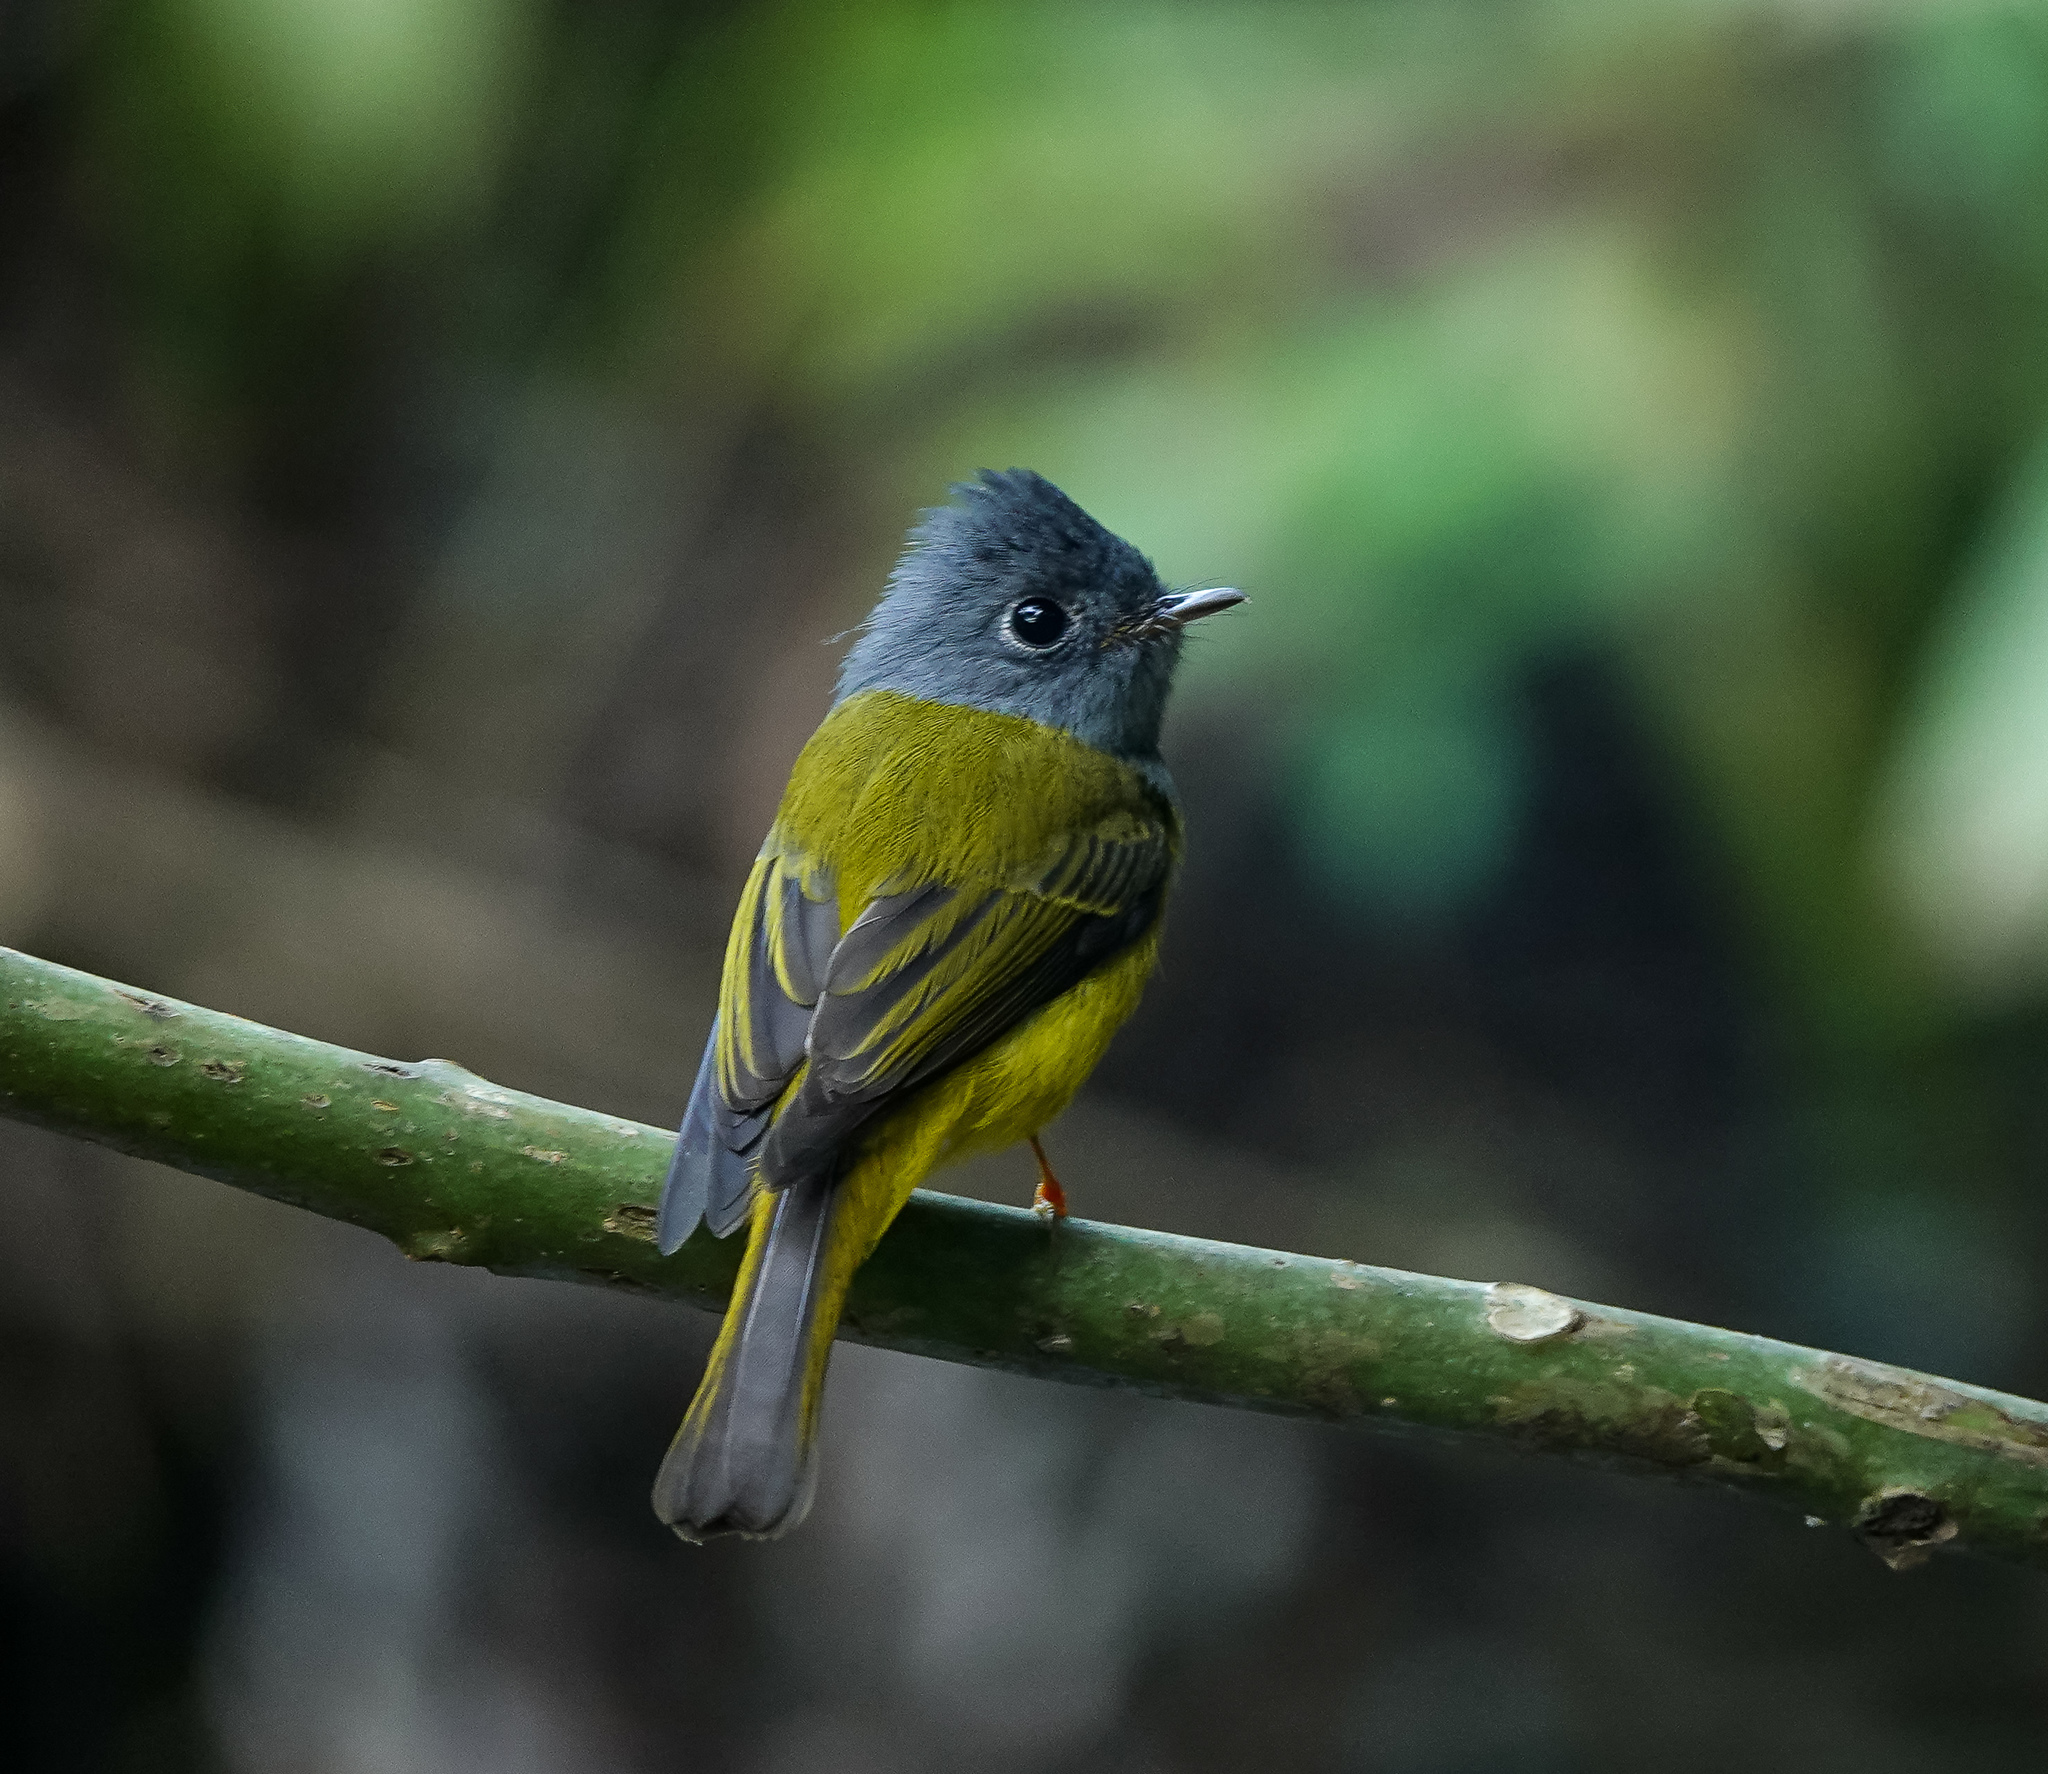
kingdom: Animalia
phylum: Chordata
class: Aves
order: Passeriformes
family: Stenostiridae
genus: Culicicapa
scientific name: Culicicapa ceylonensis
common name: Grey-headed canary-flycatcher
